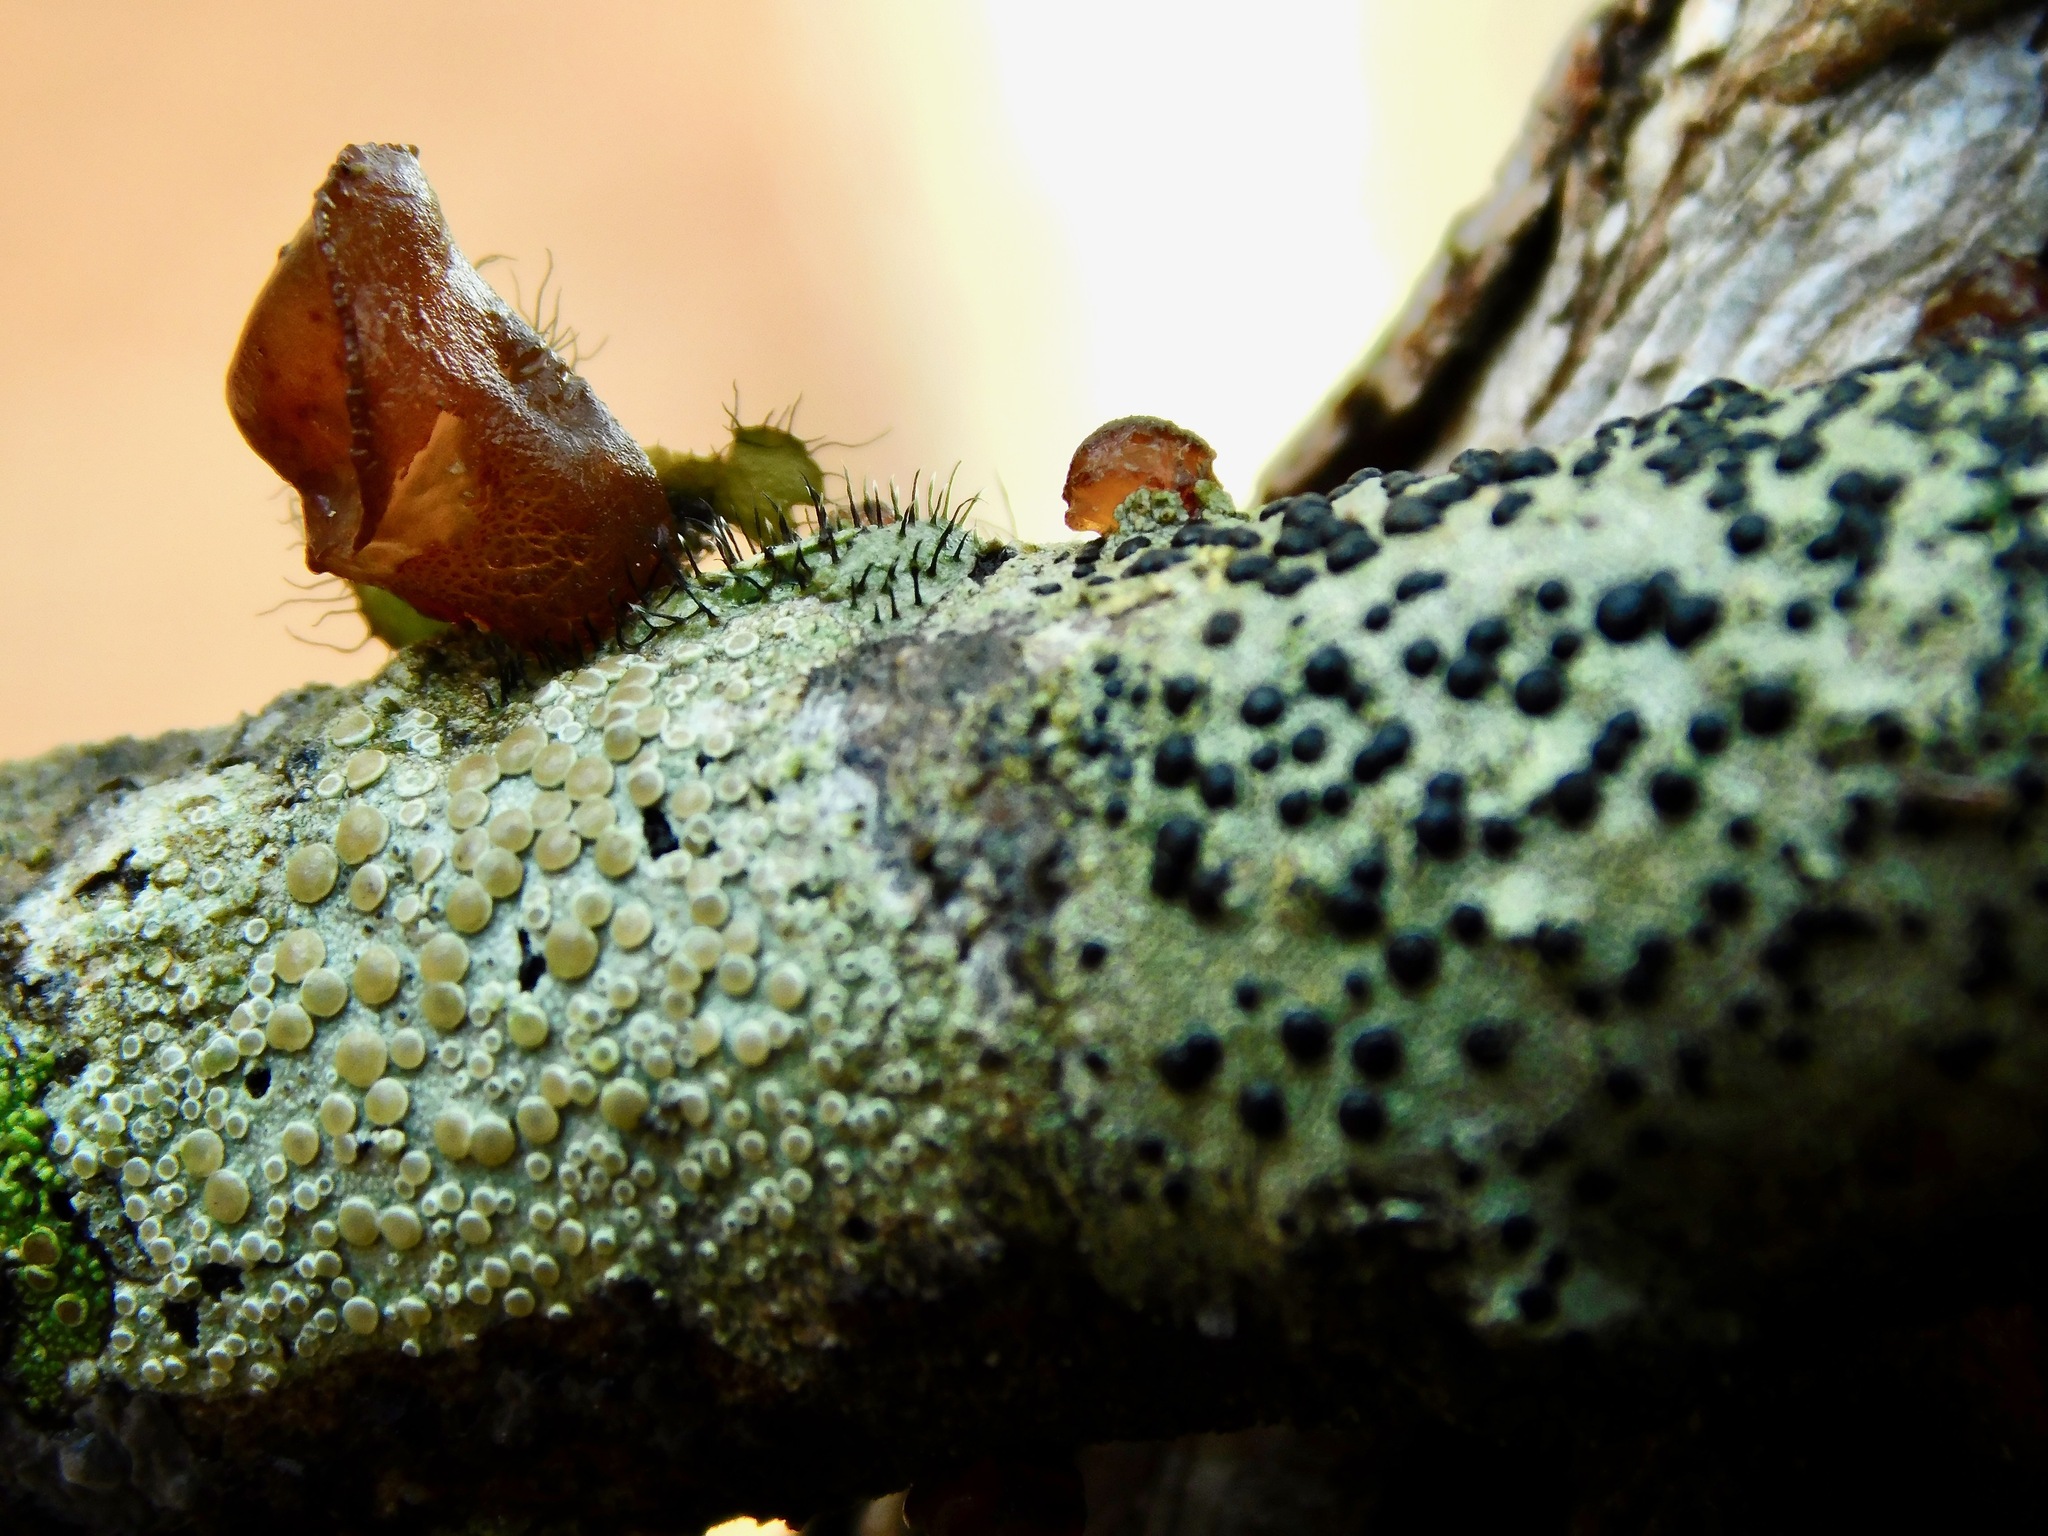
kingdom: Fungi
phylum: Ascomycota
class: Lecanoromycetes
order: Ostropales
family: Gomphillaceae
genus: Gyalideopsis
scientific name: Gyalideopsis buckii
